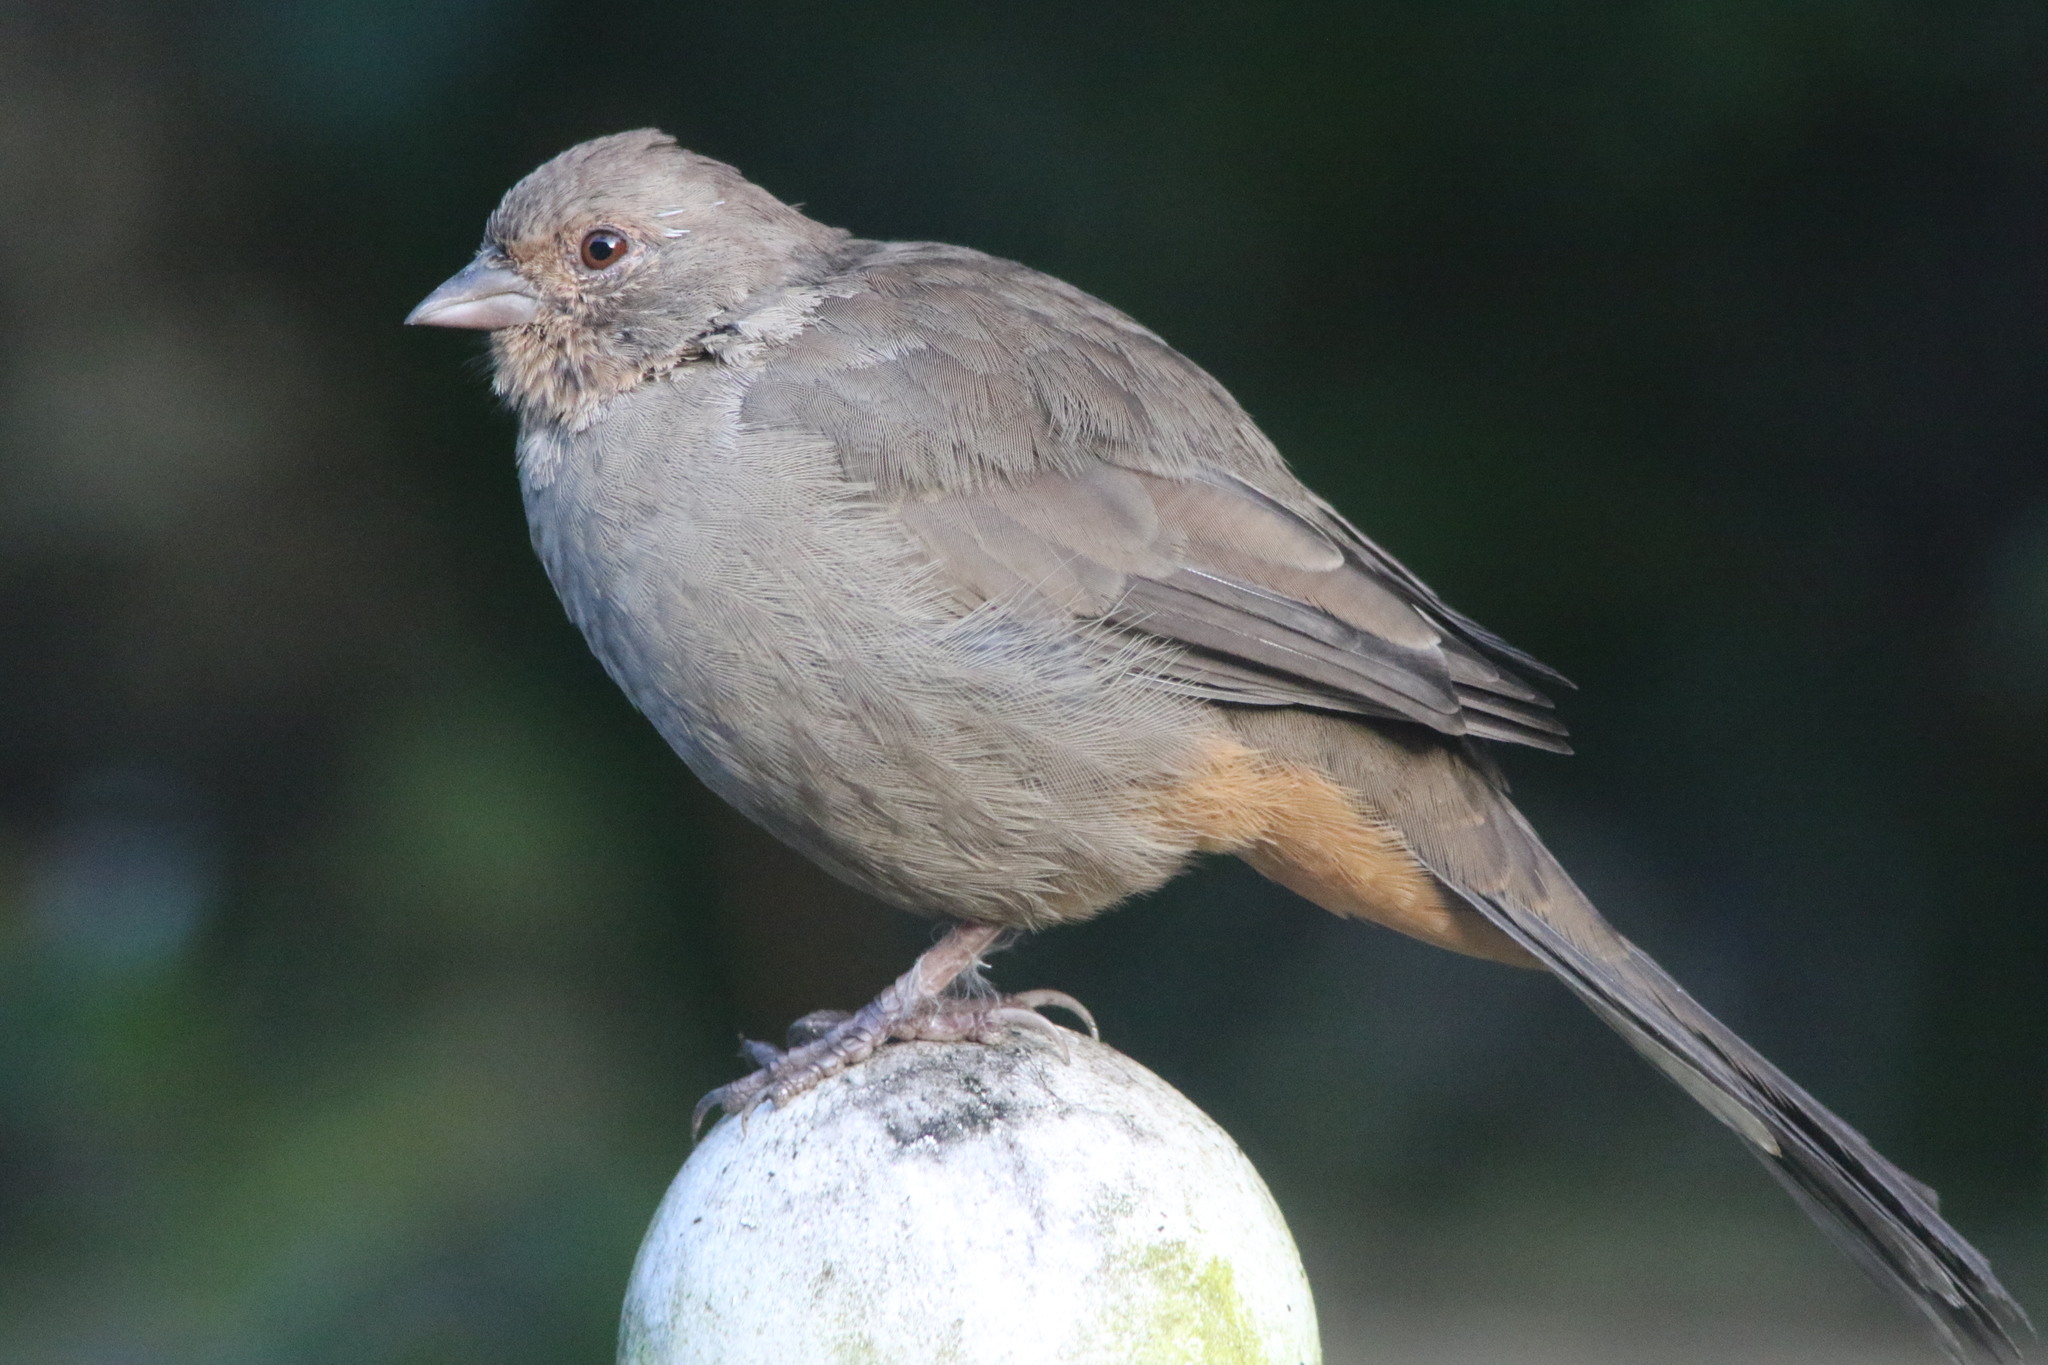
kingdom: Animalia
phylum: Chordata
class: Aves
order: Passeriformes
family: Passerellidae
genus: Melozone
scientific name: Melozone crissalis
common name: California towhee
